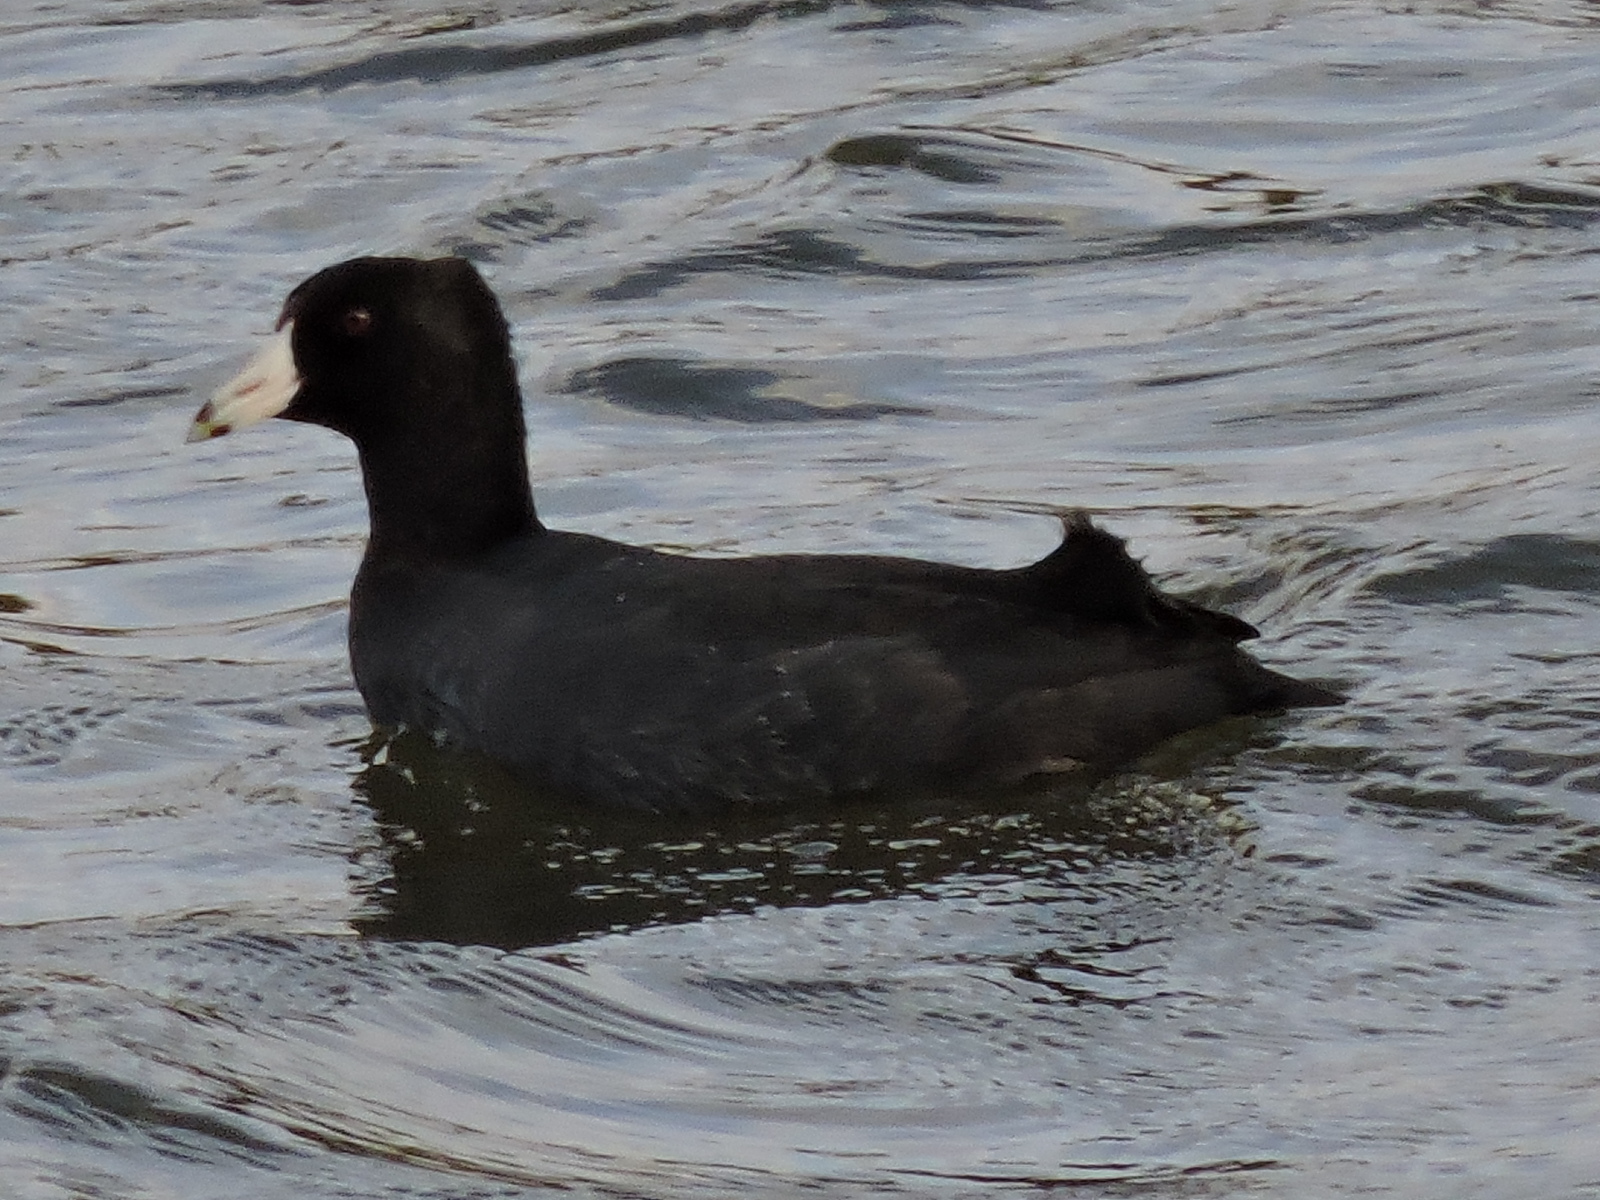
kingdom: Animalia
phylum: Chordata
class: Aves
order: Gruiformes
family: Rallidae
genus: Fulica
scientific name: Fulica americana
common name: American coot
